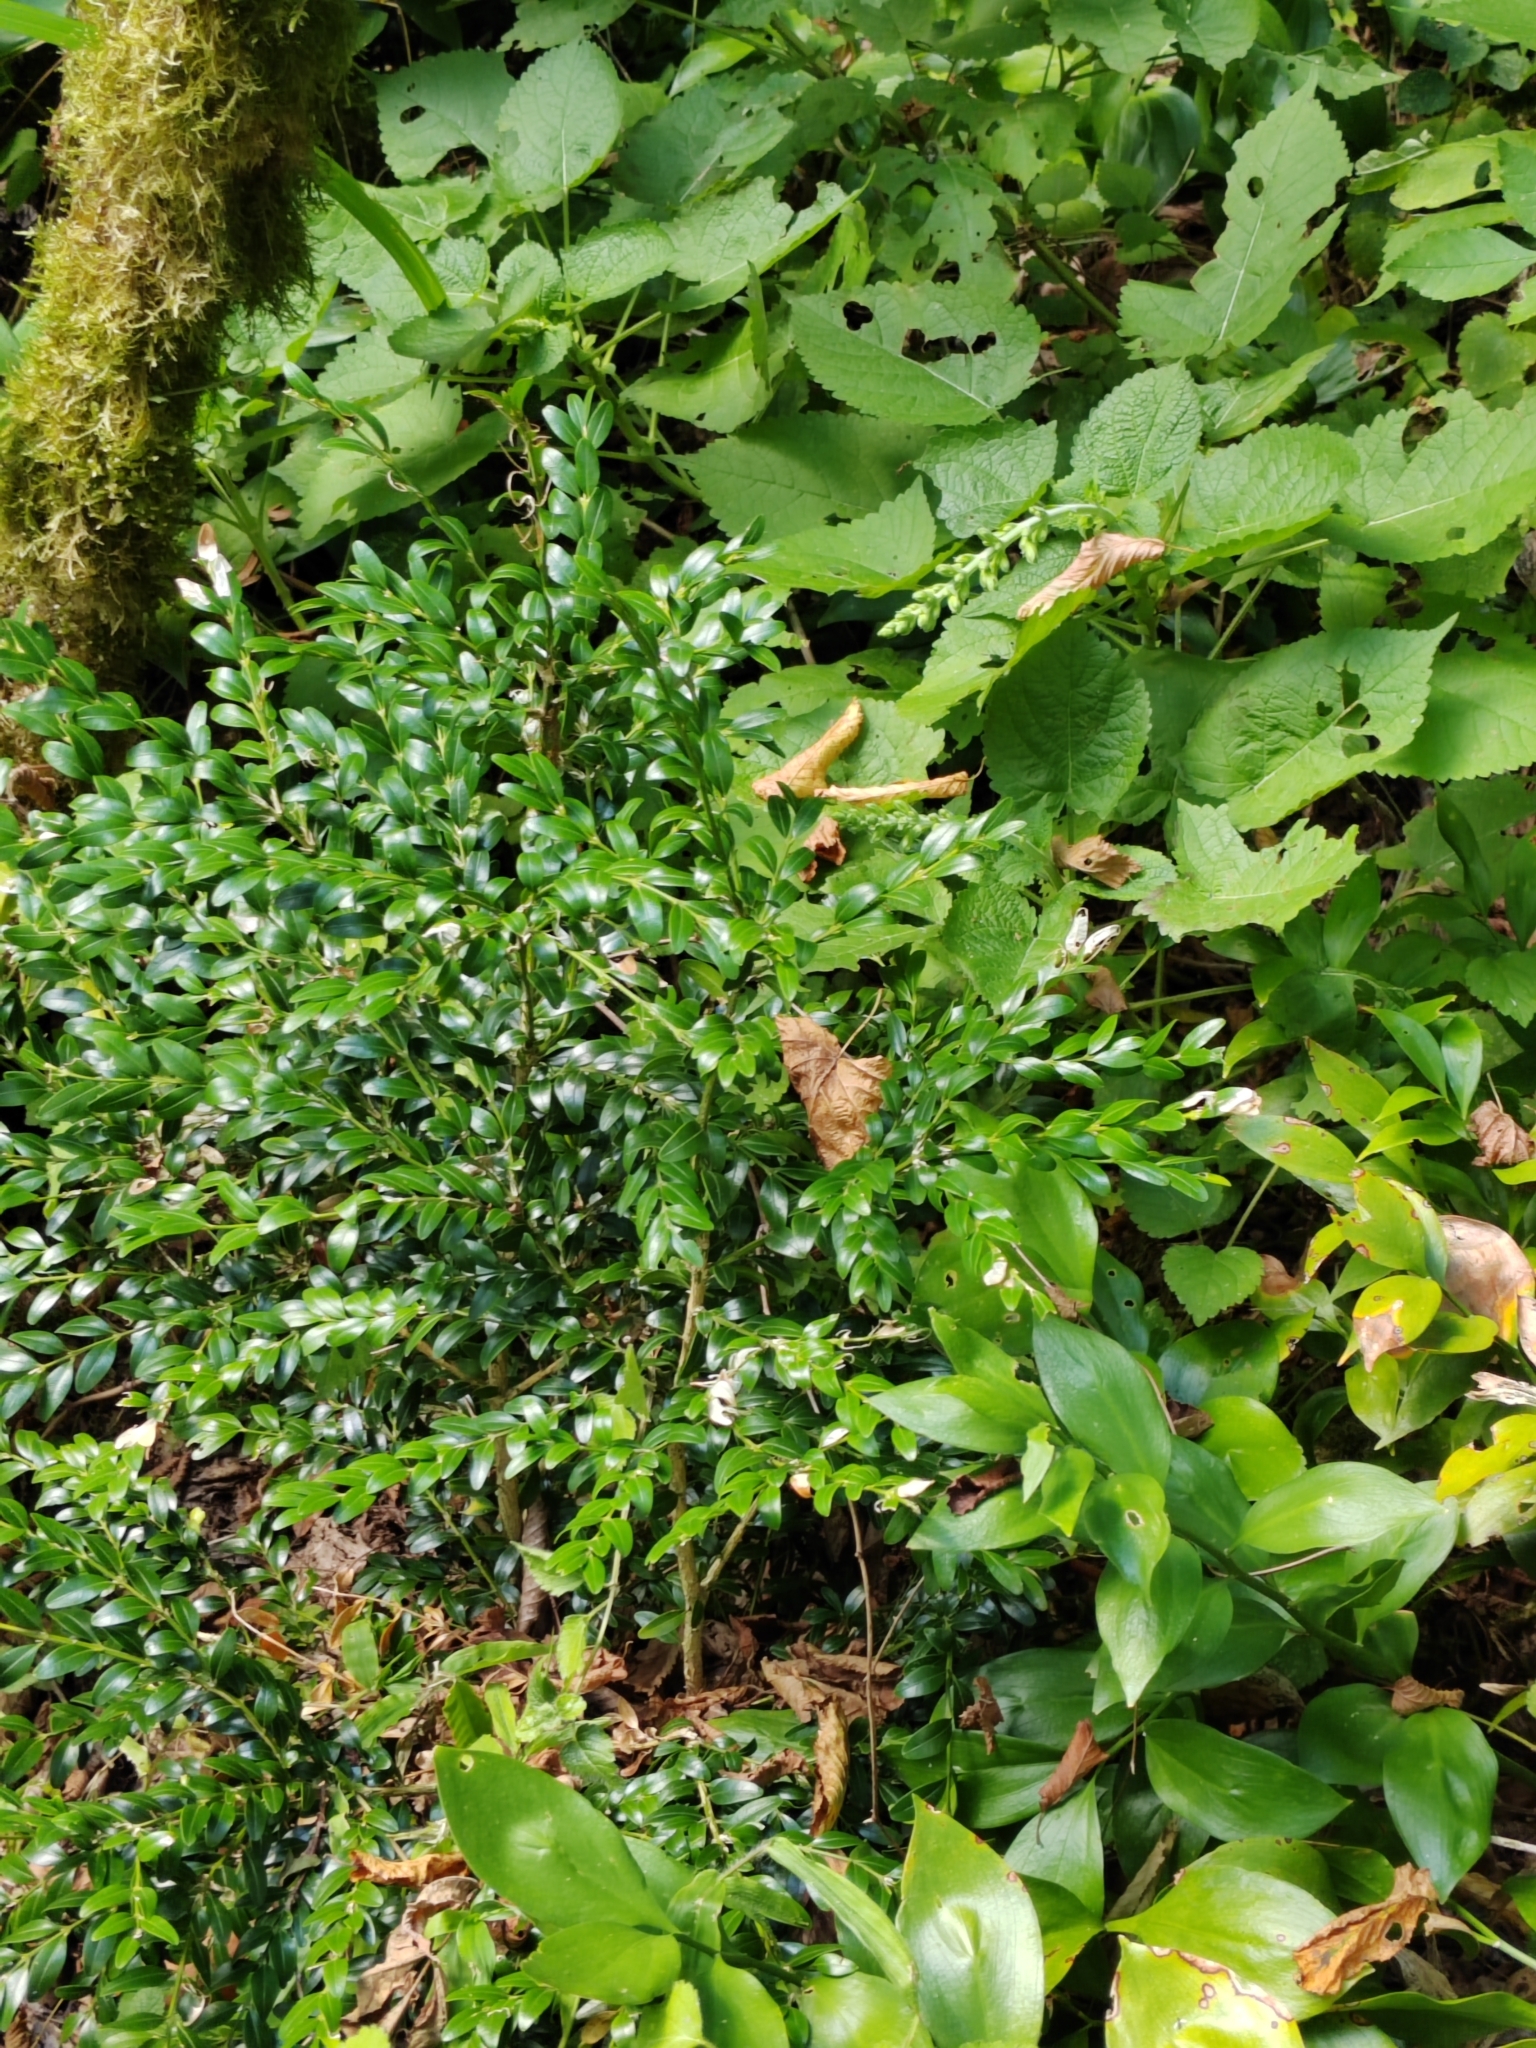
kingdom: Plantae
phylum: Tracheophyta
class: Magnoliopsida
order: Buxales
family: Buxaceae
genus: Buxus
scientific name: Buxus sempervirens
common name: Box
